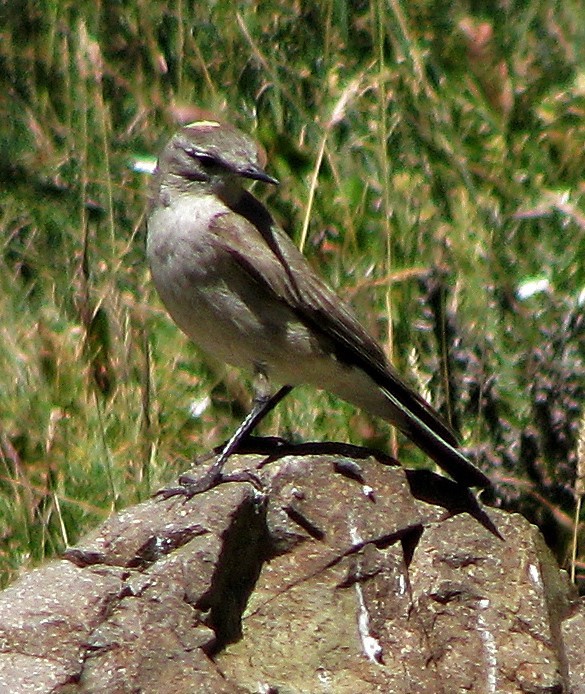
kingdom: Animalia
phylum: Chordata
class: Aves
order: Passeriformes
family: Tyrannidae
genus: Muscisaxicola
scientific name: Muscisaxicola flavinucha
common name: Ochre-naped ground tyrant
